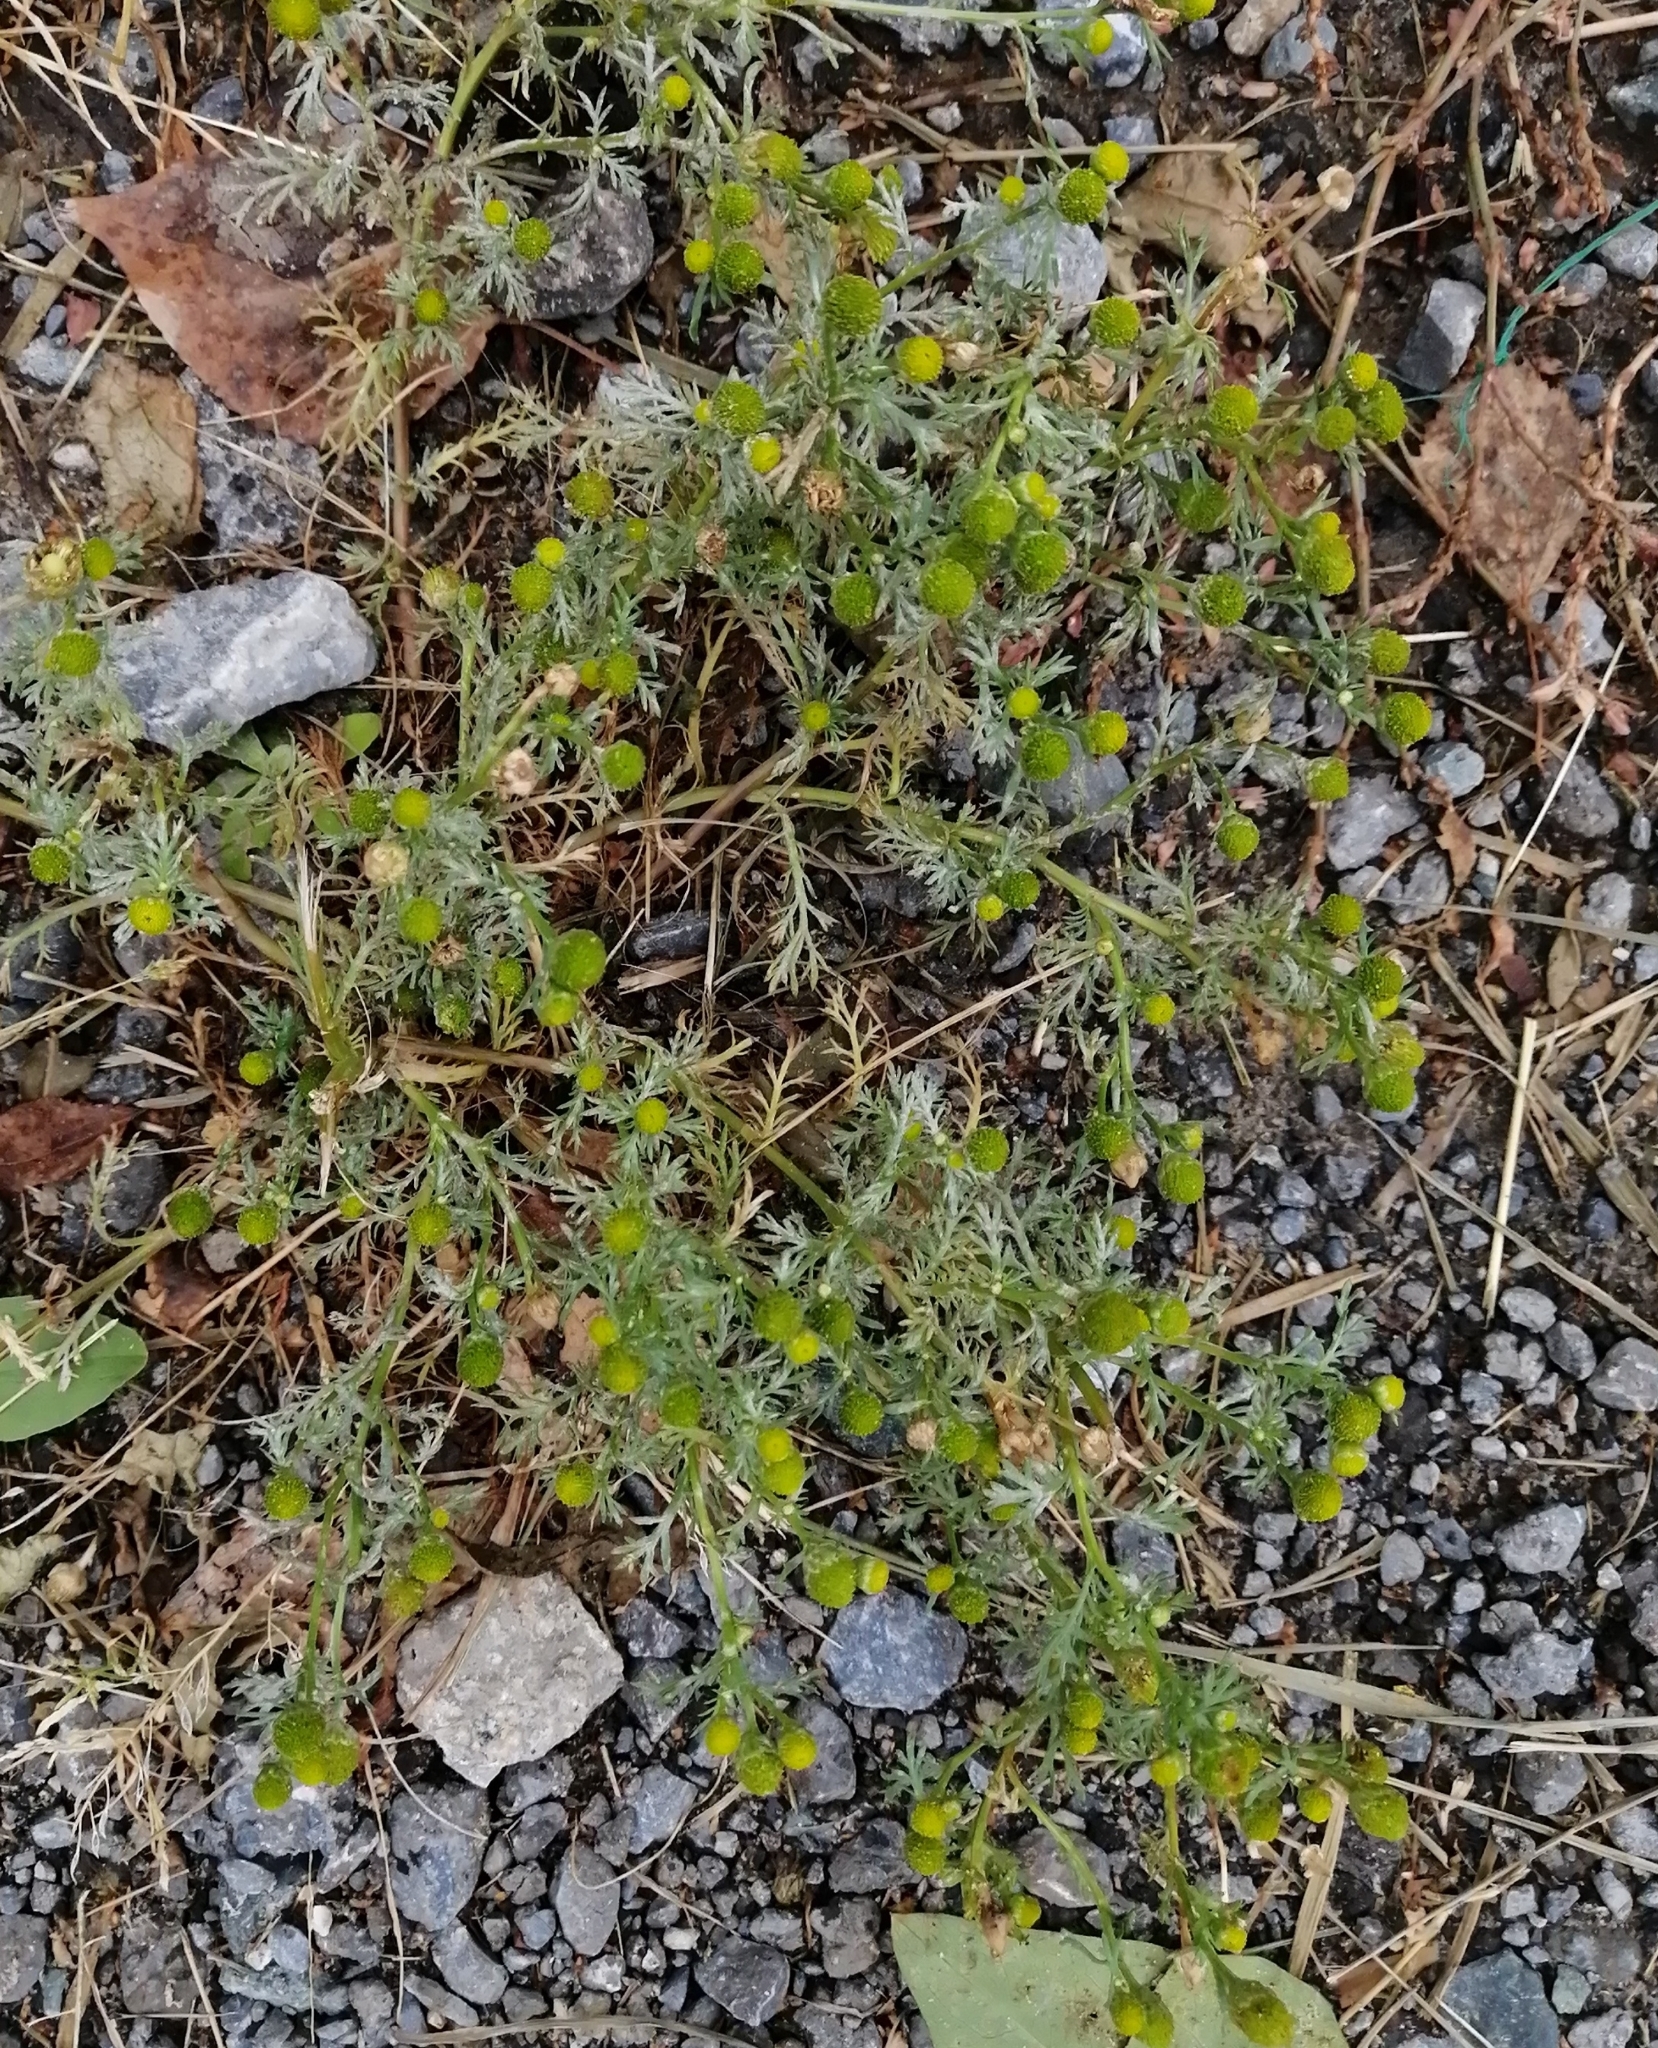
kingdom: Plantae
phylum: Tracheophyta
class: Magnoliopsida
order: Asterales
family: Asteraceae
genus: Matricaria
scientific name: Matricaria discoidea
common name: Disc mayweed
